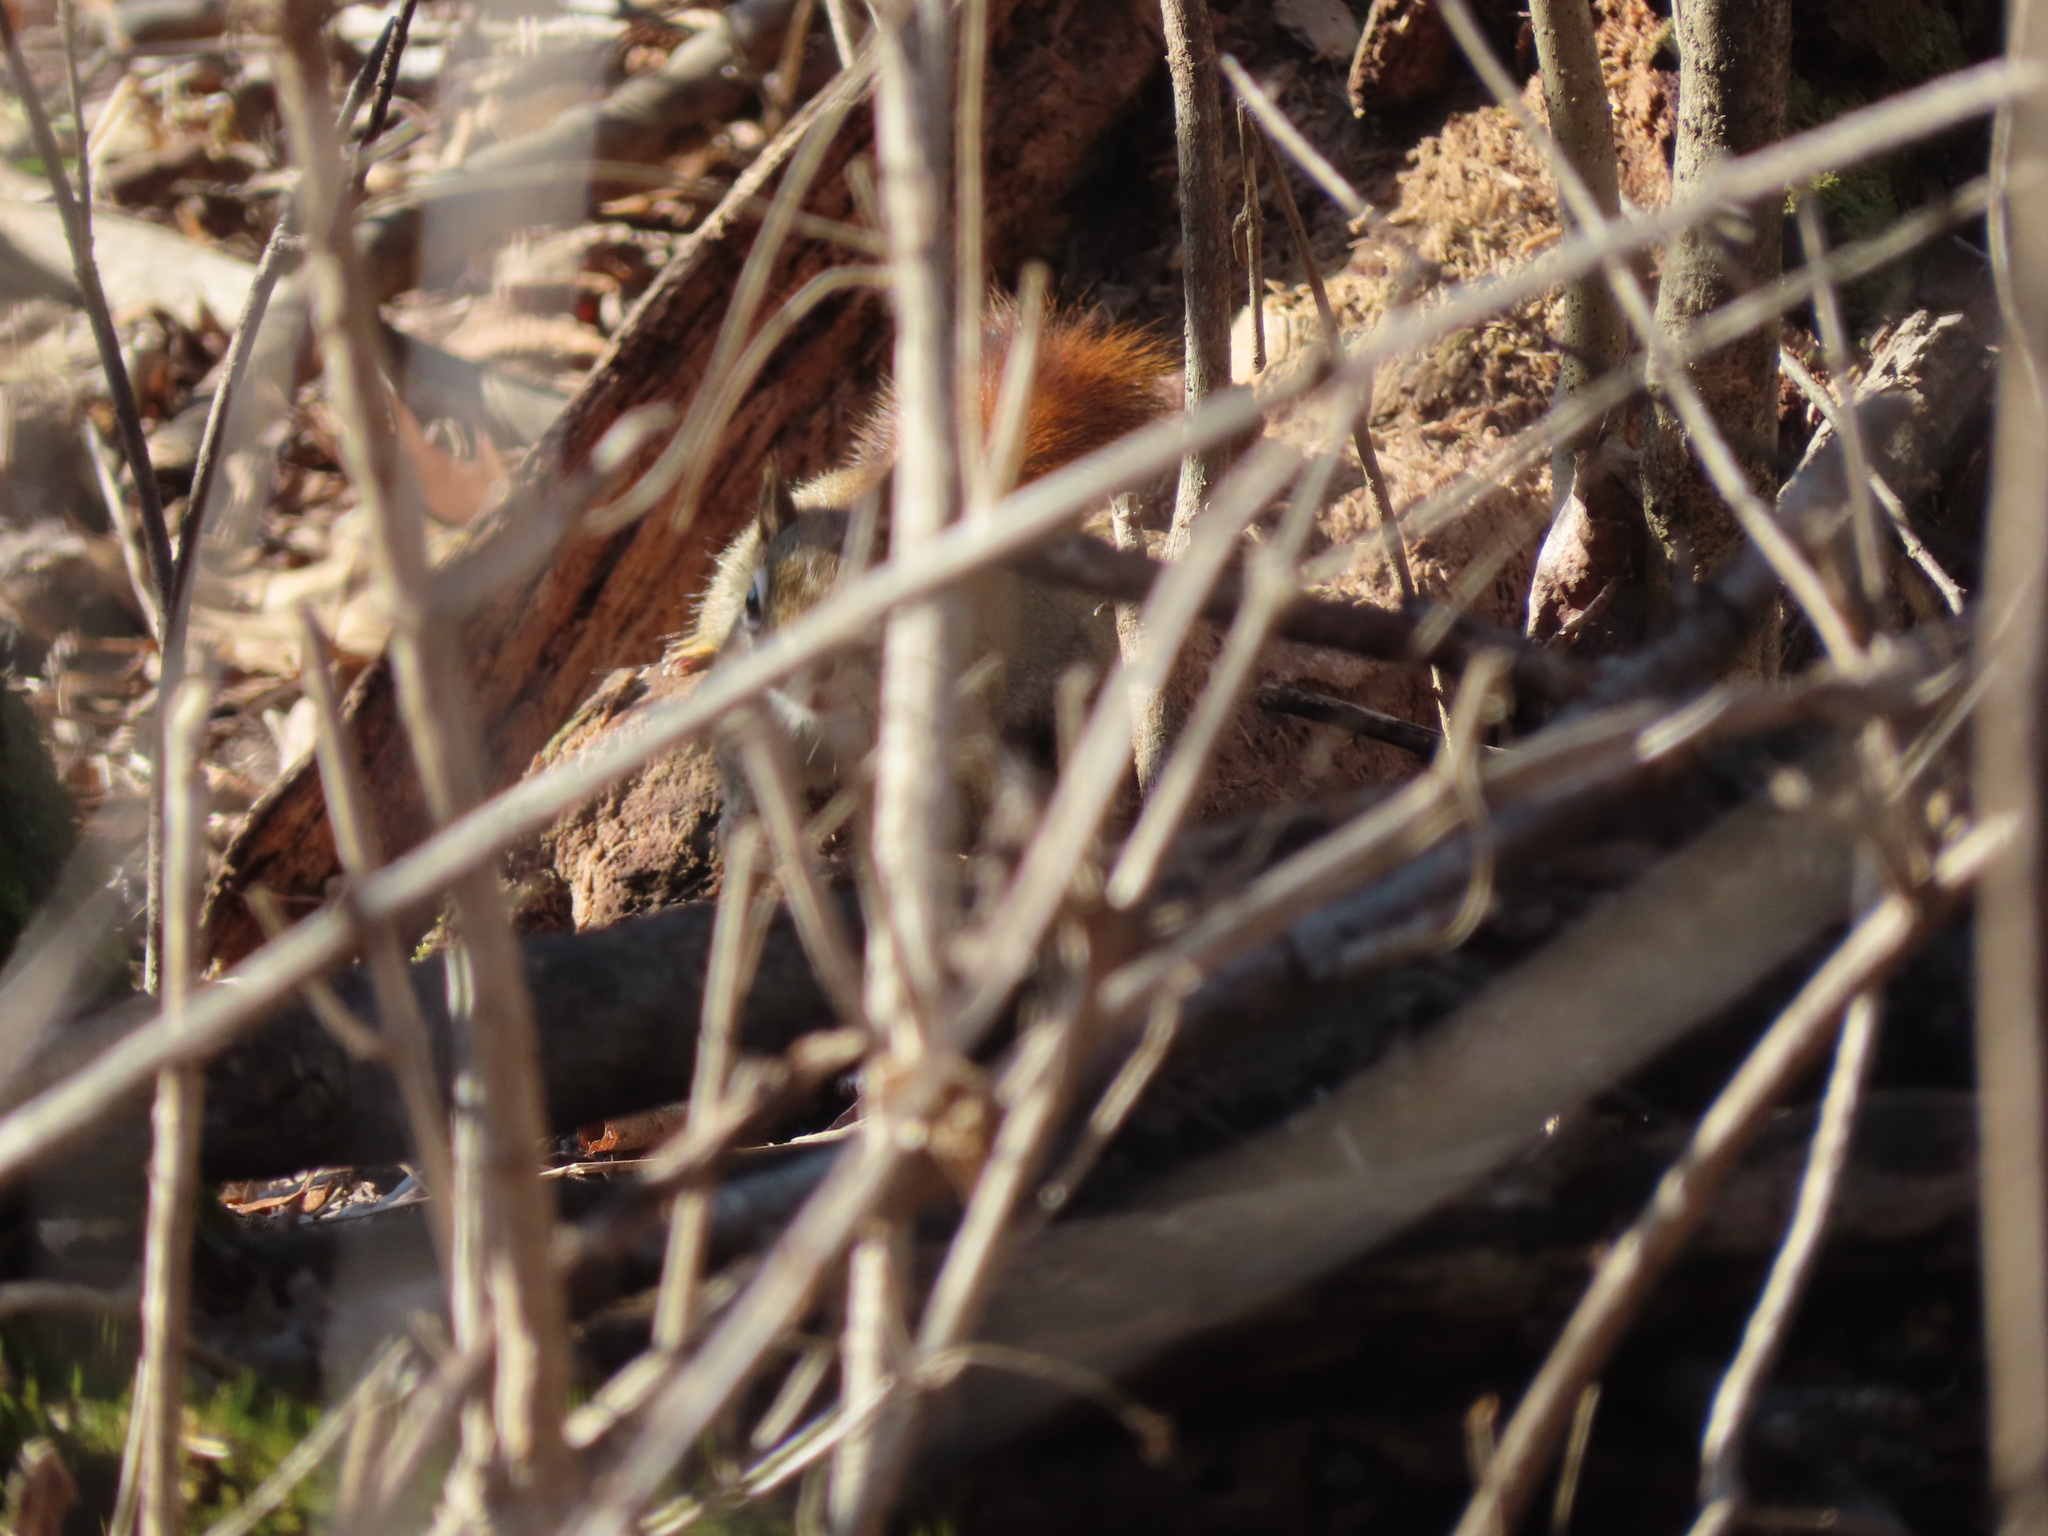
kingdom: Animalia
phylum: Chordata
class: Mammalia
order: Rodentia
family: Sciuridae
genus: Tamiasciurus
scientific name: Tamiasciurus hudsonicus
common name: Red squirrel
